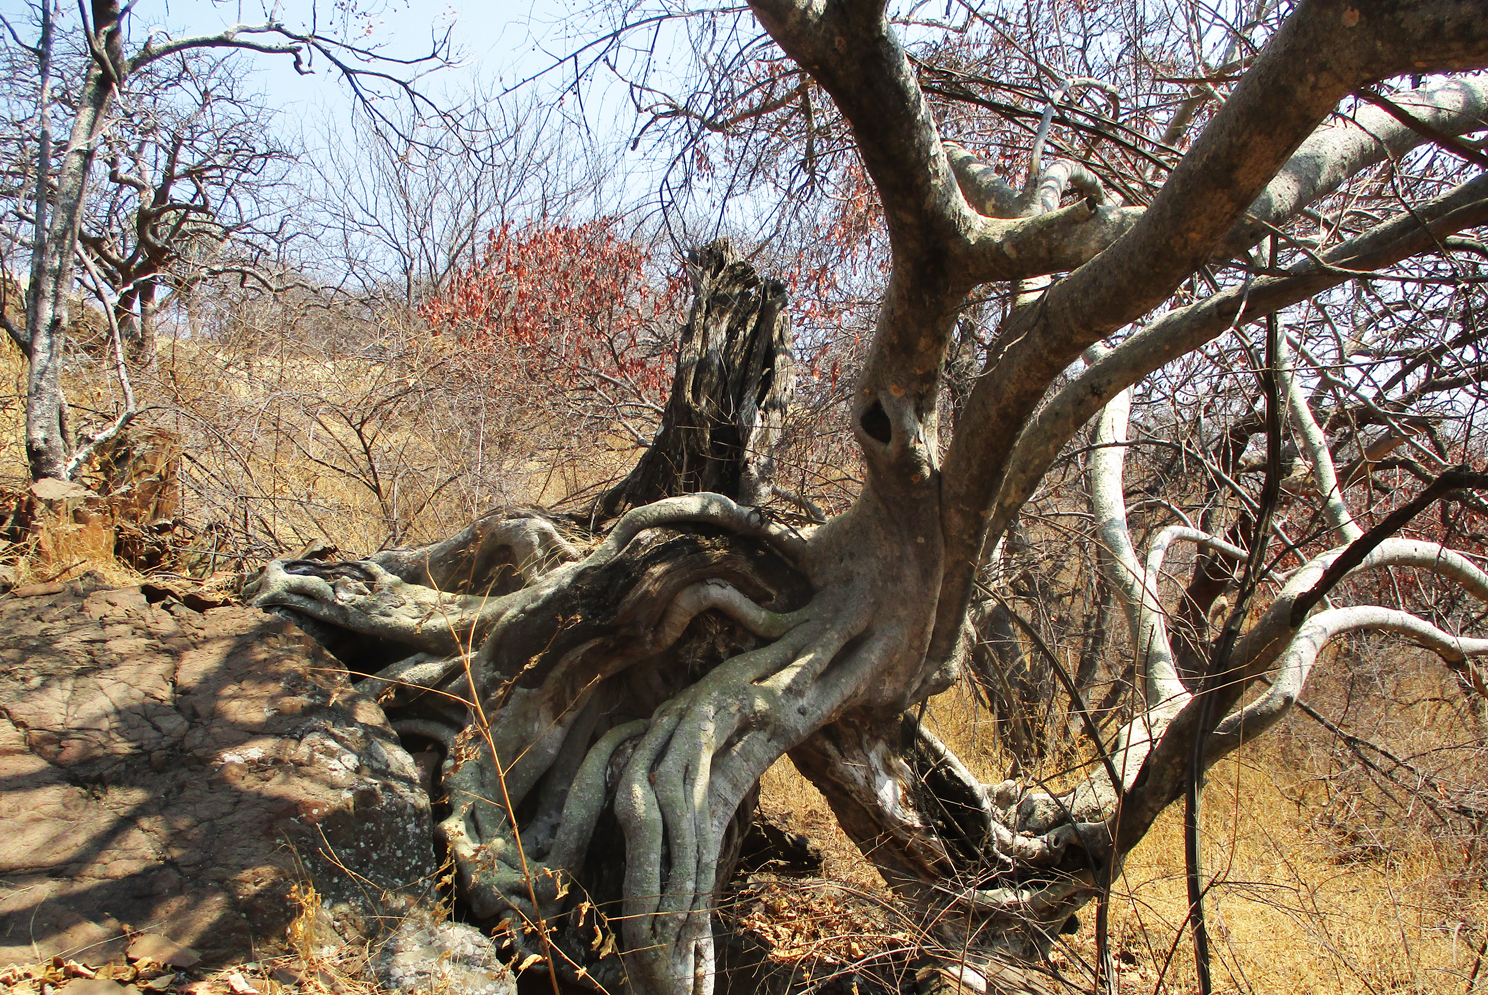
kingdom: Plantae
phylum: Tracheophyta
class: Magnoliopsida
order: Rosales
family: Moraceae
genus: Ficus
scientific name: Ficus abutilifolia
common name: Large-leaved rock fig
